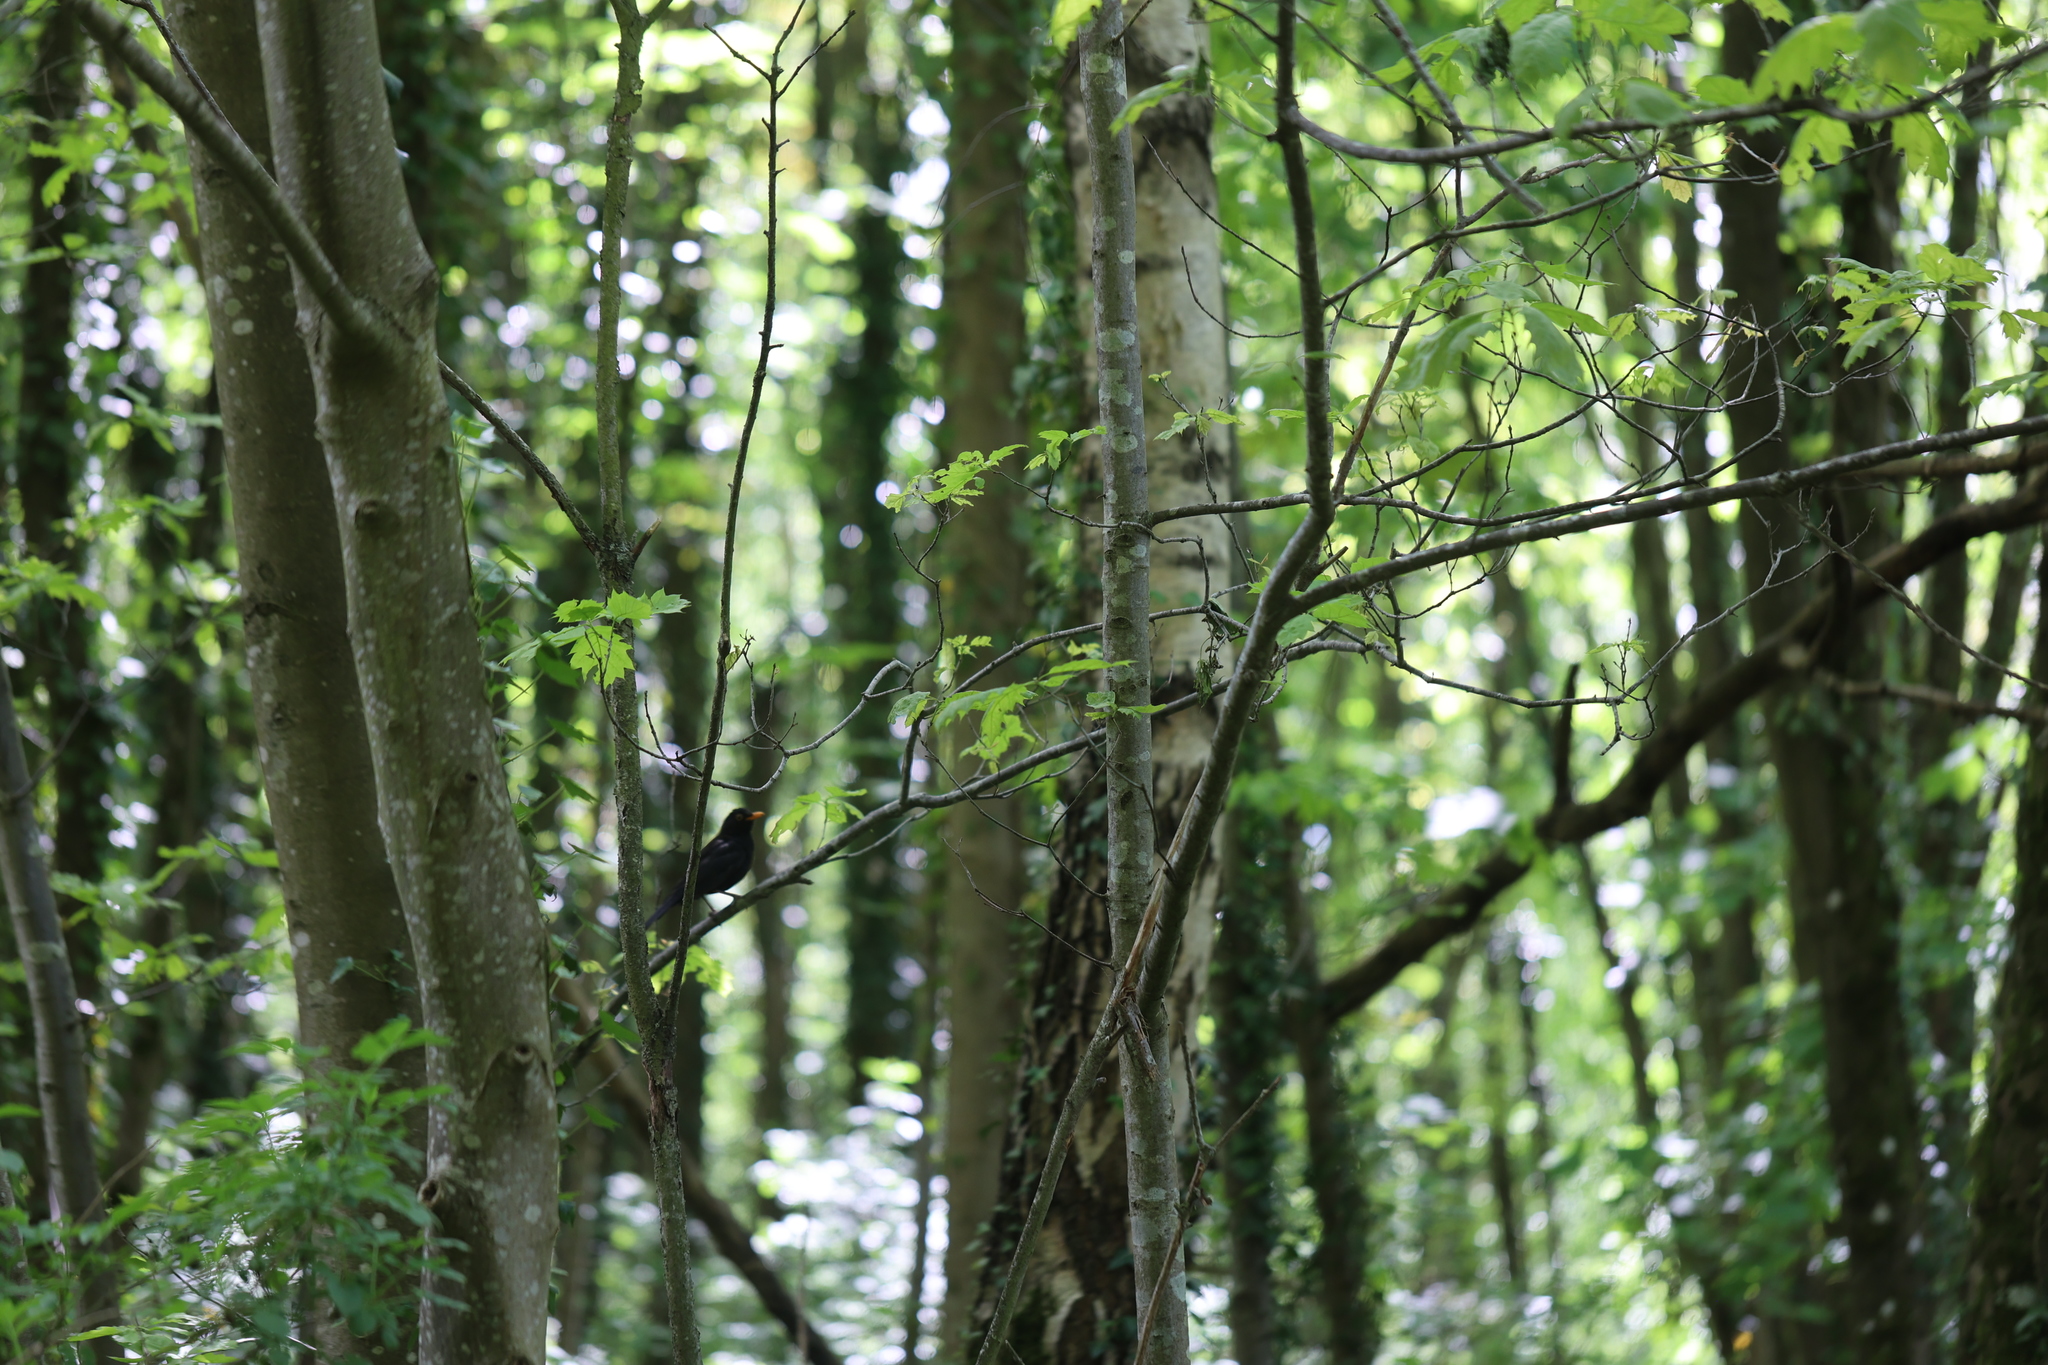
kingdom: Animalia
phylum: Chordata
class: Aves
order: Passeriformes
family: Turdidae
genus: Turdus
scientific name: Turdus merula
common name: Common blackbird
